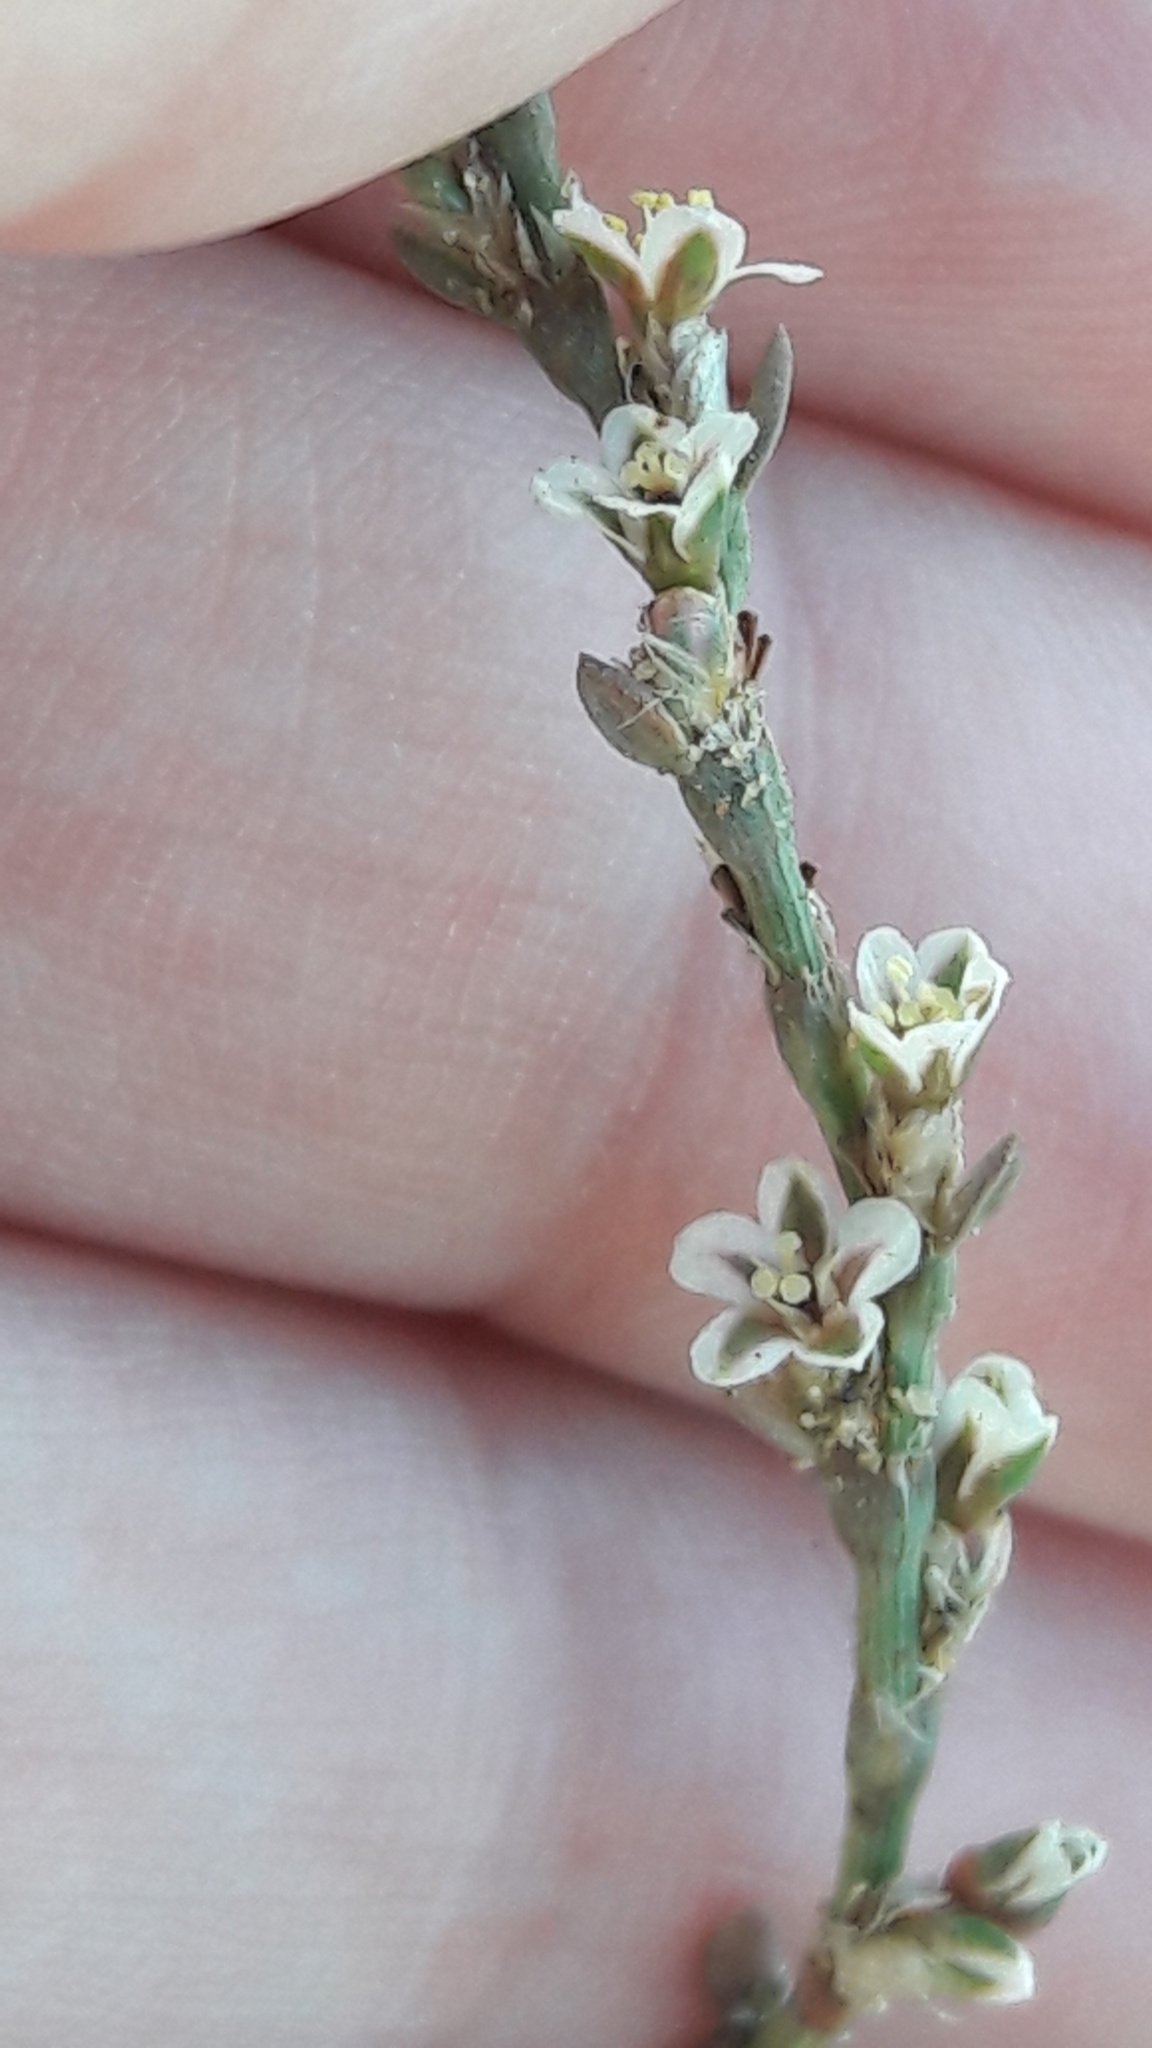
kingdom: Plantae
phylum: Tracheophyta
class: Magnoliopsida
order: Caryophyllales
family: Polygonaceae
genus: Polygonum
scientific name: Polygonum equisetiforme
